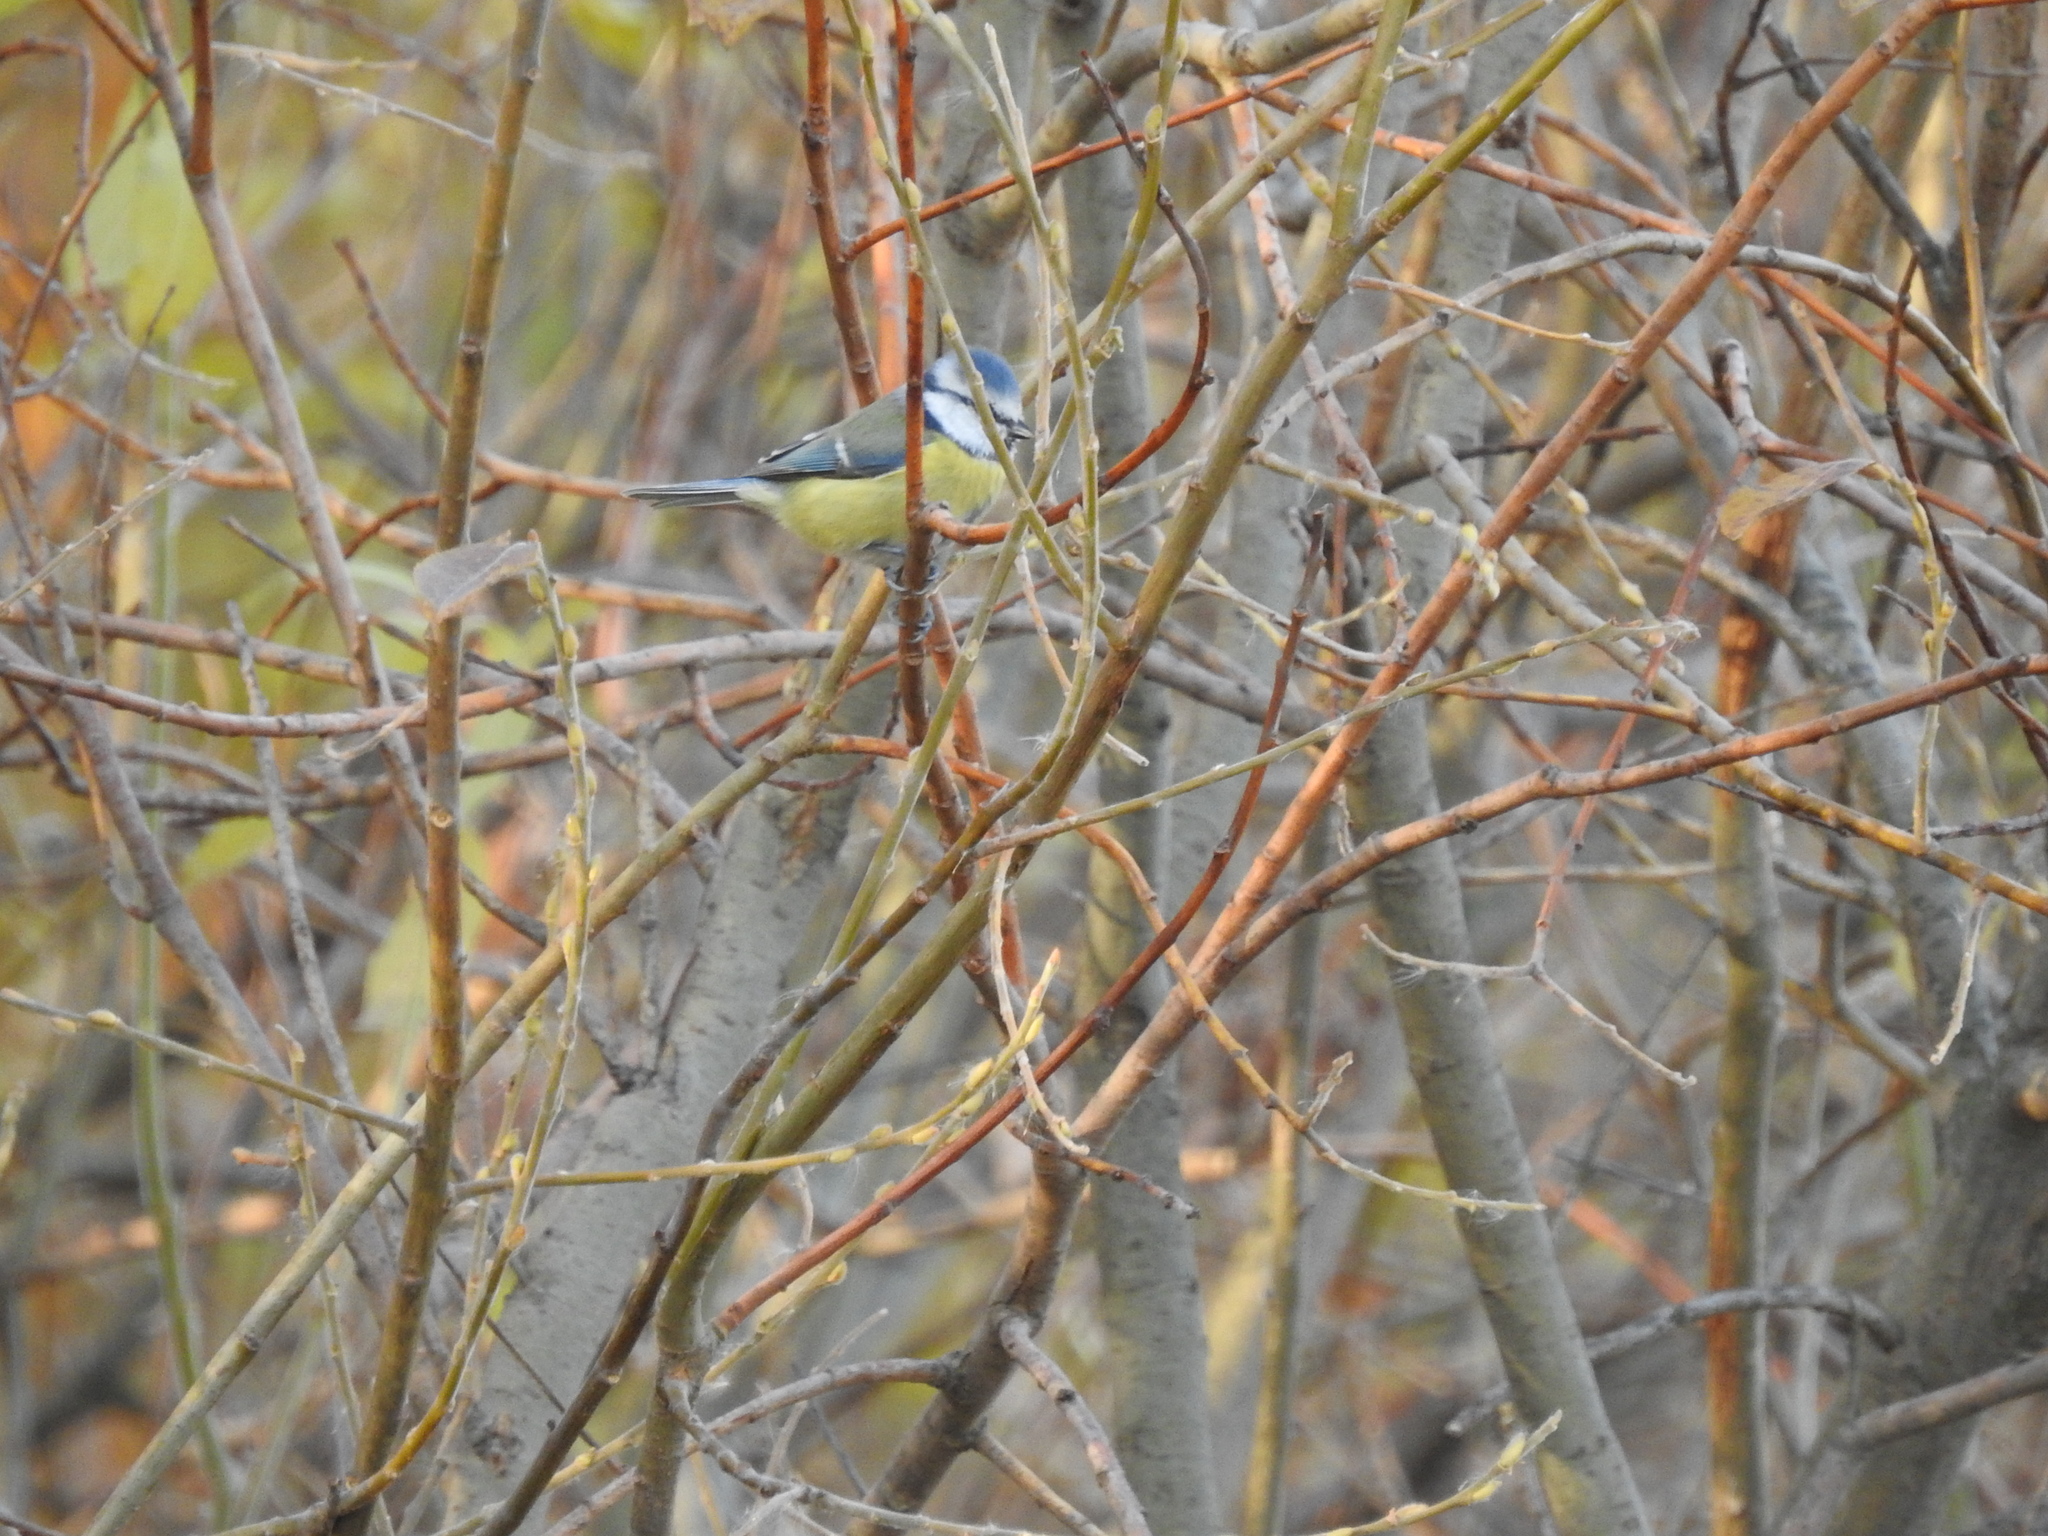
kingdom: Animalia
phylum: Chordata
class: Aves
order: Passeriformes
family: Paridae
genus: Cyanistes
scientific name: Cyanistes caeruleus
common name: Eurasian blue tit
